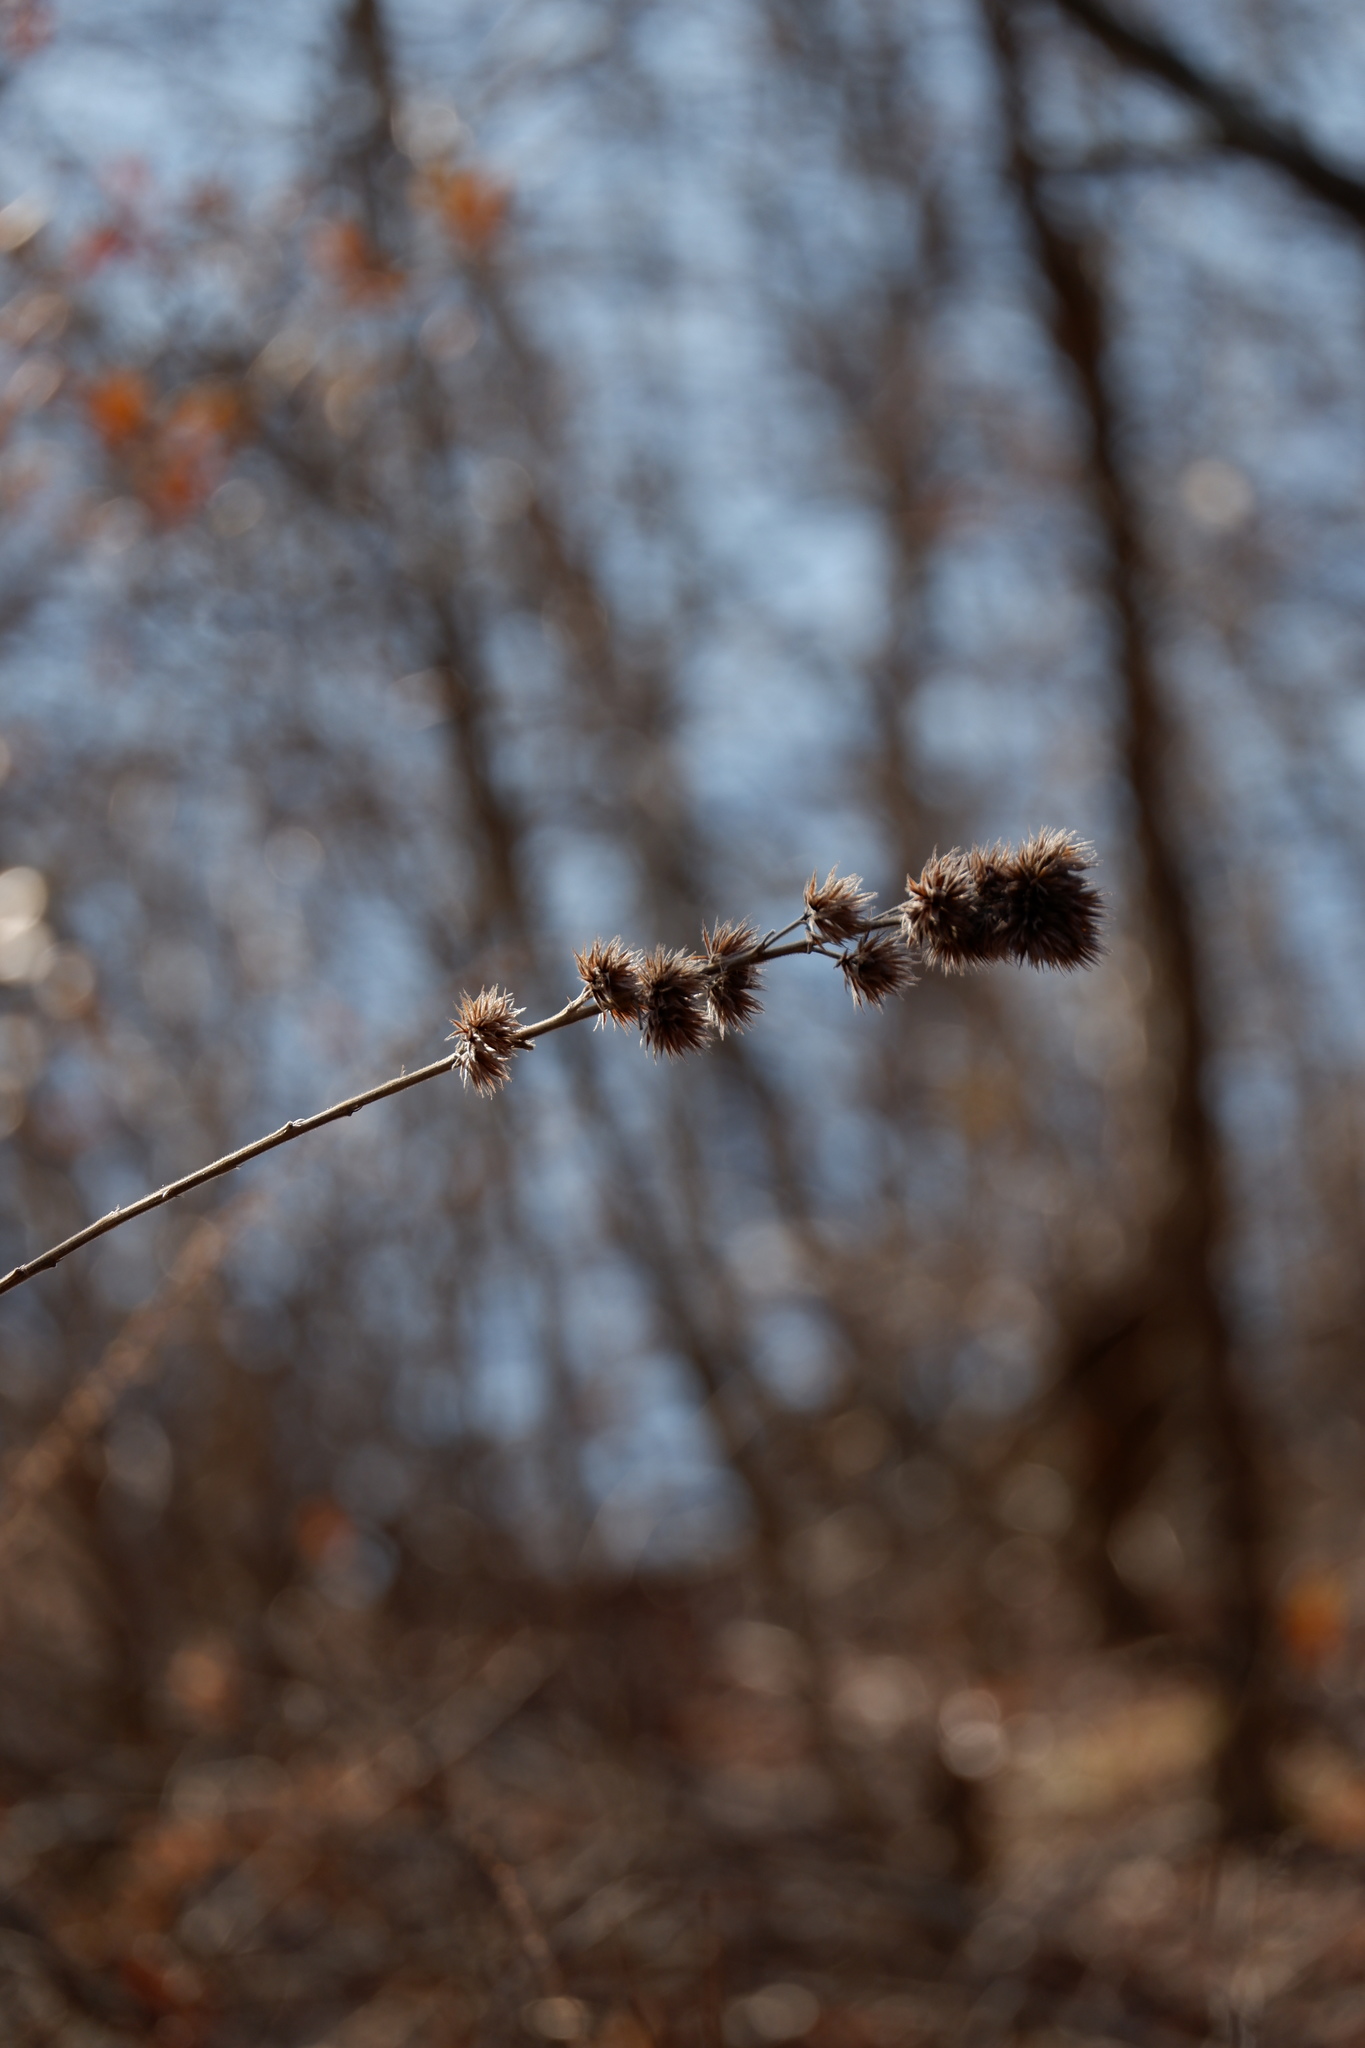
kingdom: Plantae
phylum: Tracheophyta
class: Magnoliopsida
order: Fabales
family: Fabaceae
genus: Lespedeza
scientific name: Lespedeza capitata
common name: Dusty clover
